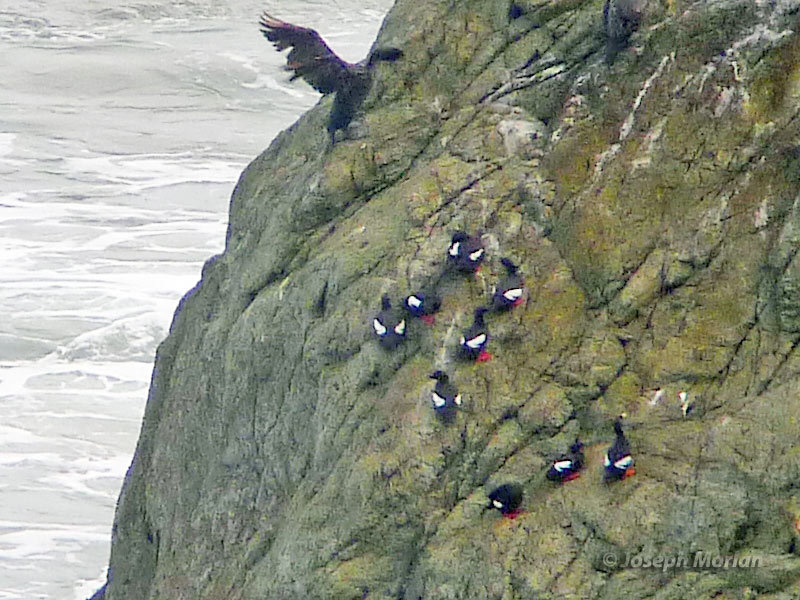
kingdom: Animalia
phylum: Chordata
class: Aves
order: Charadriiformes
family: Alcidae
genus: Cepphus
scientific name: Cepphus columba
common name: Pigeon guillemot
